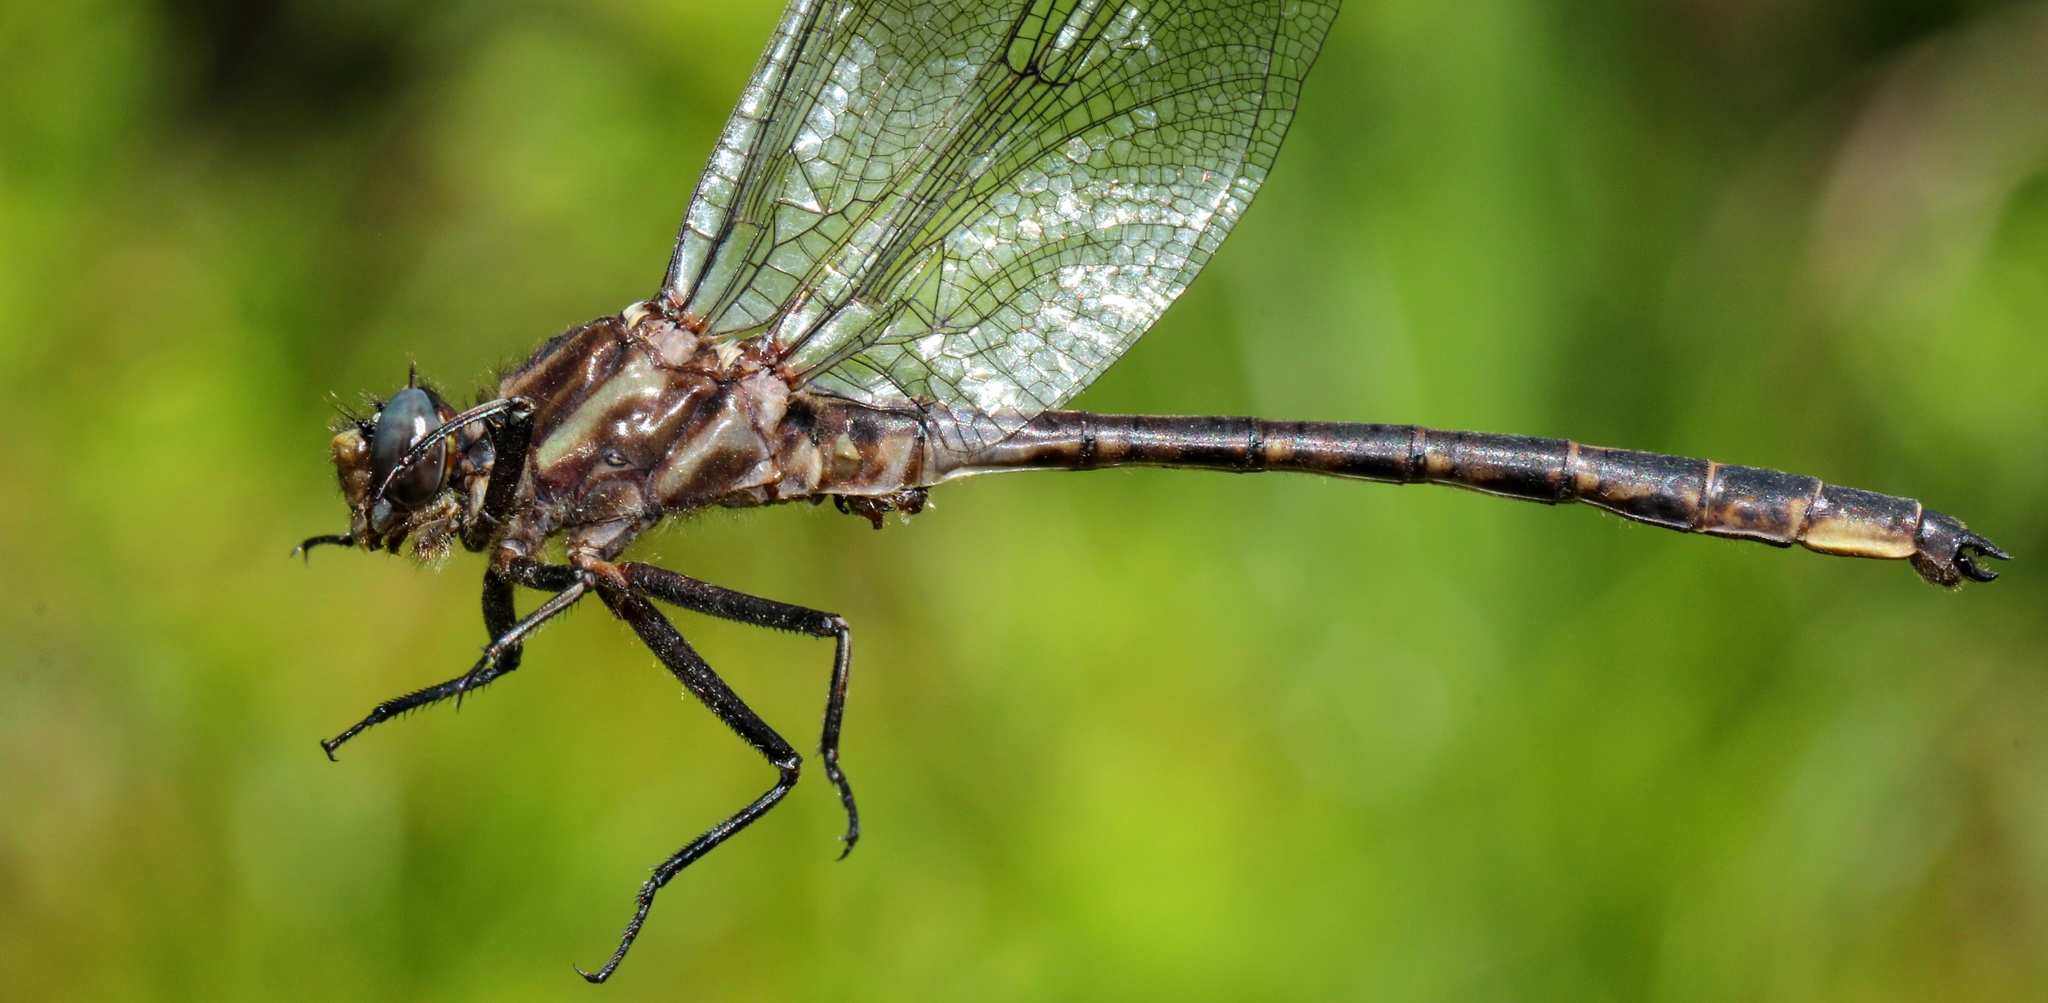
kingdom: Animalia
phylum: Arthropoda
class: Insecta
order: Odonata
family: Gomphidae
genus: Phanogomphus
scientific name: Phanogomphus spicatus
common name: Dusky clubtail
